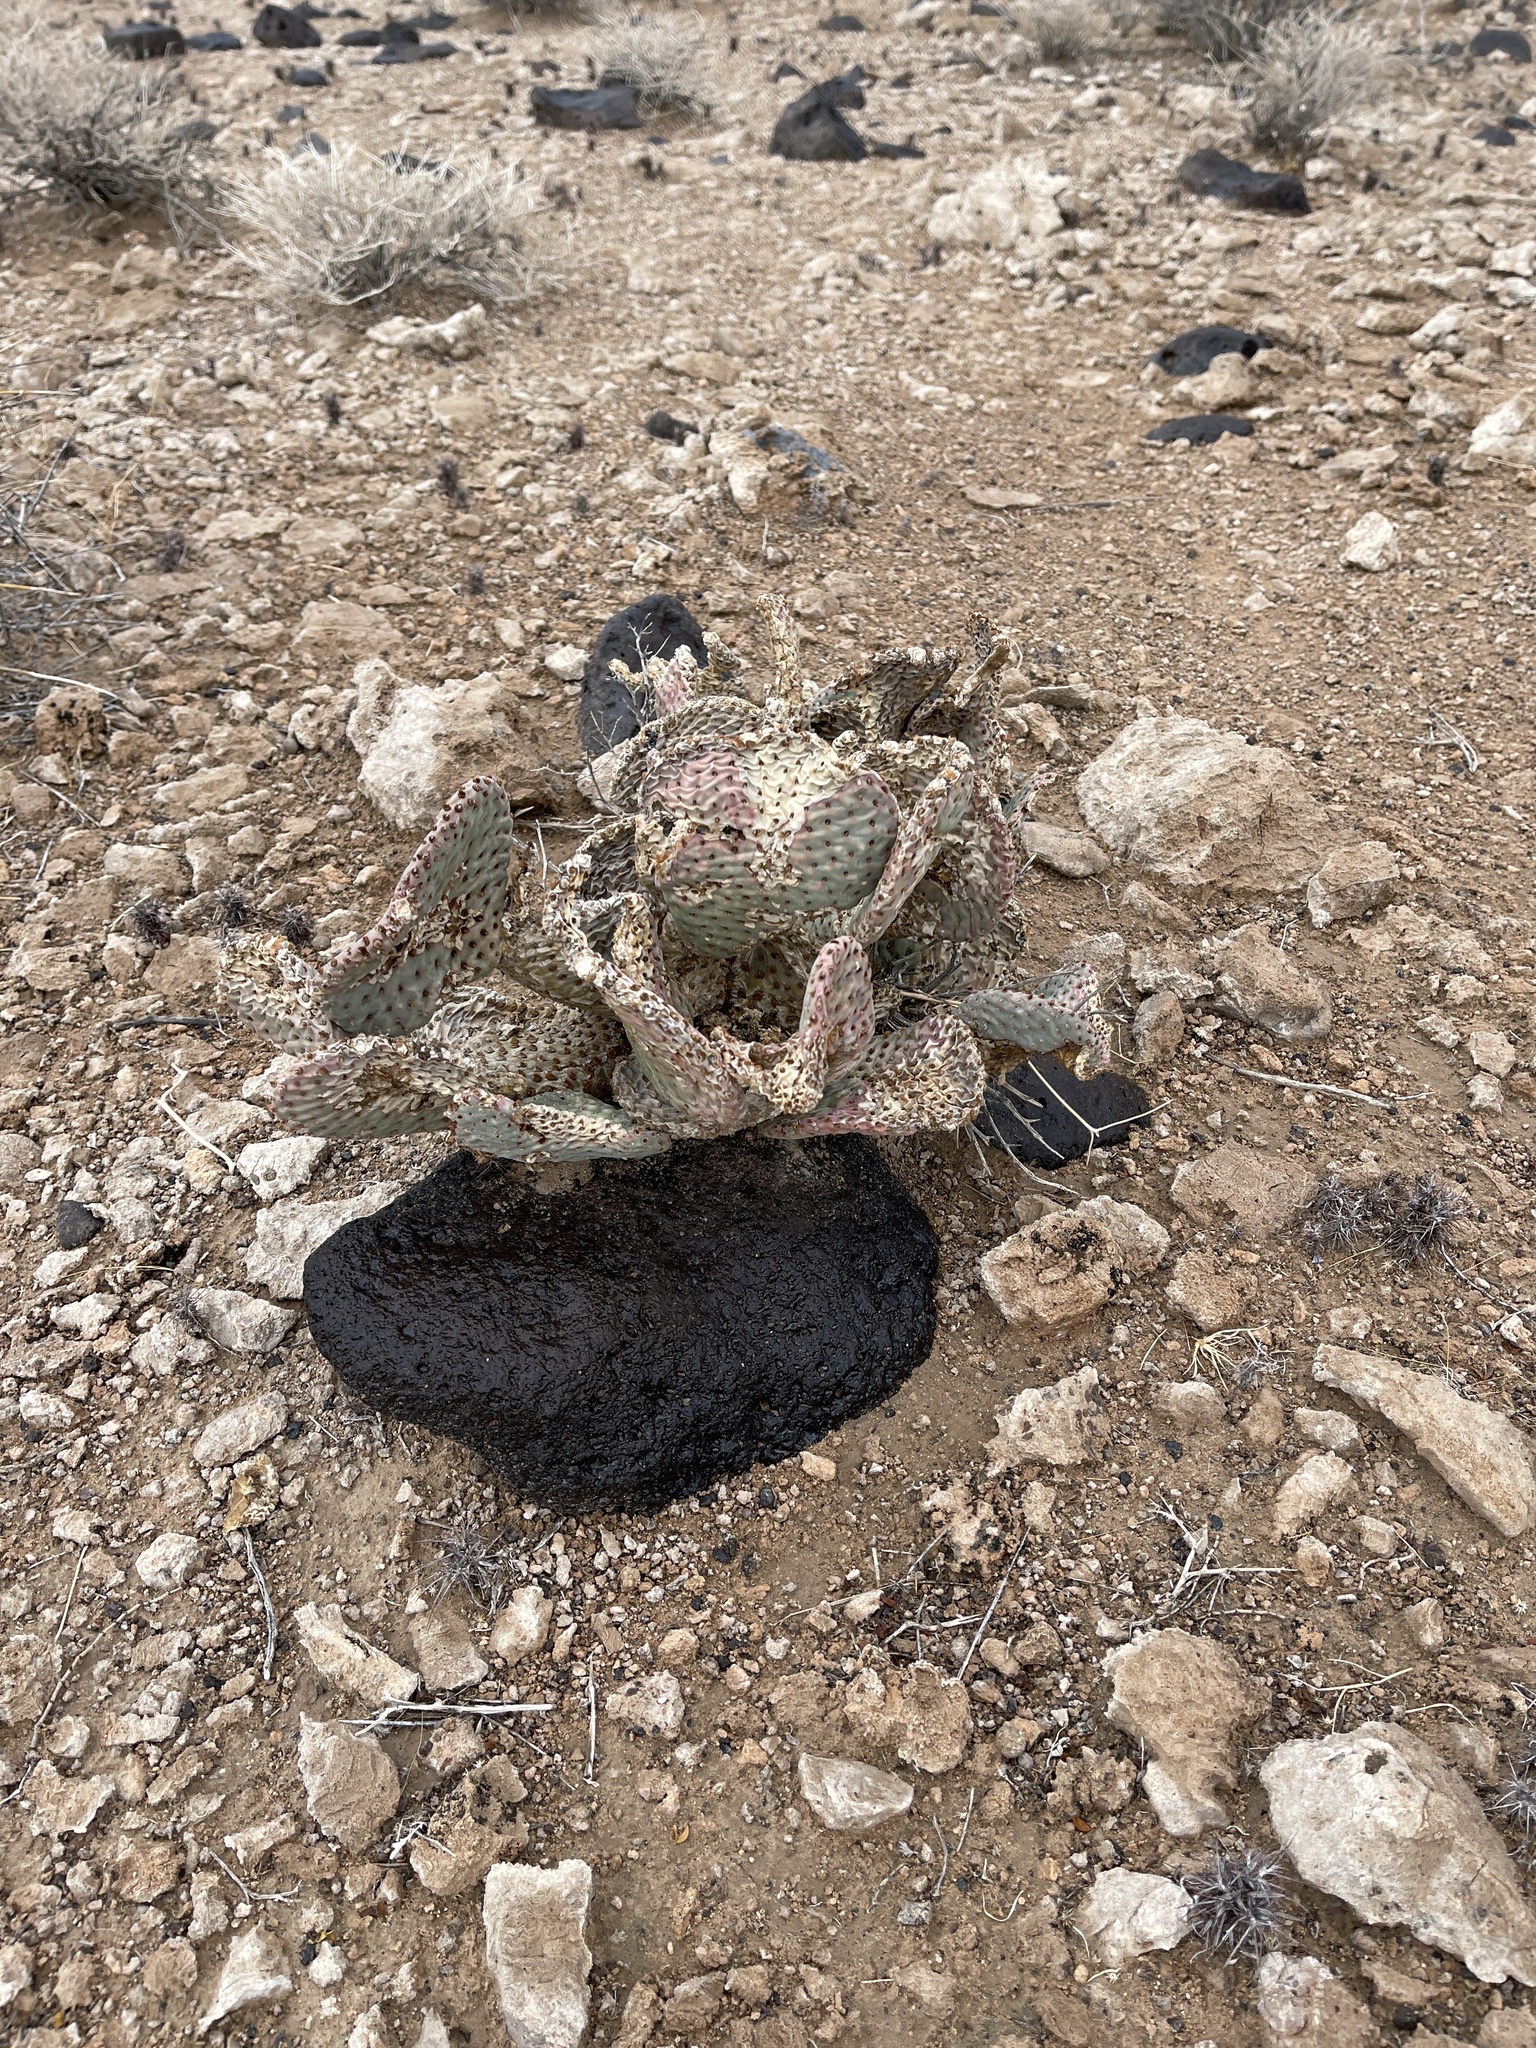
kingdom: Plantae
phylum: Tracheophyta
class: Magnoliopsida
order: Caryophyllales
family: Cactaceae
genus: Opuntia
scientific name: Opuntia basilaris
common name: Beavertail prickly-pear
